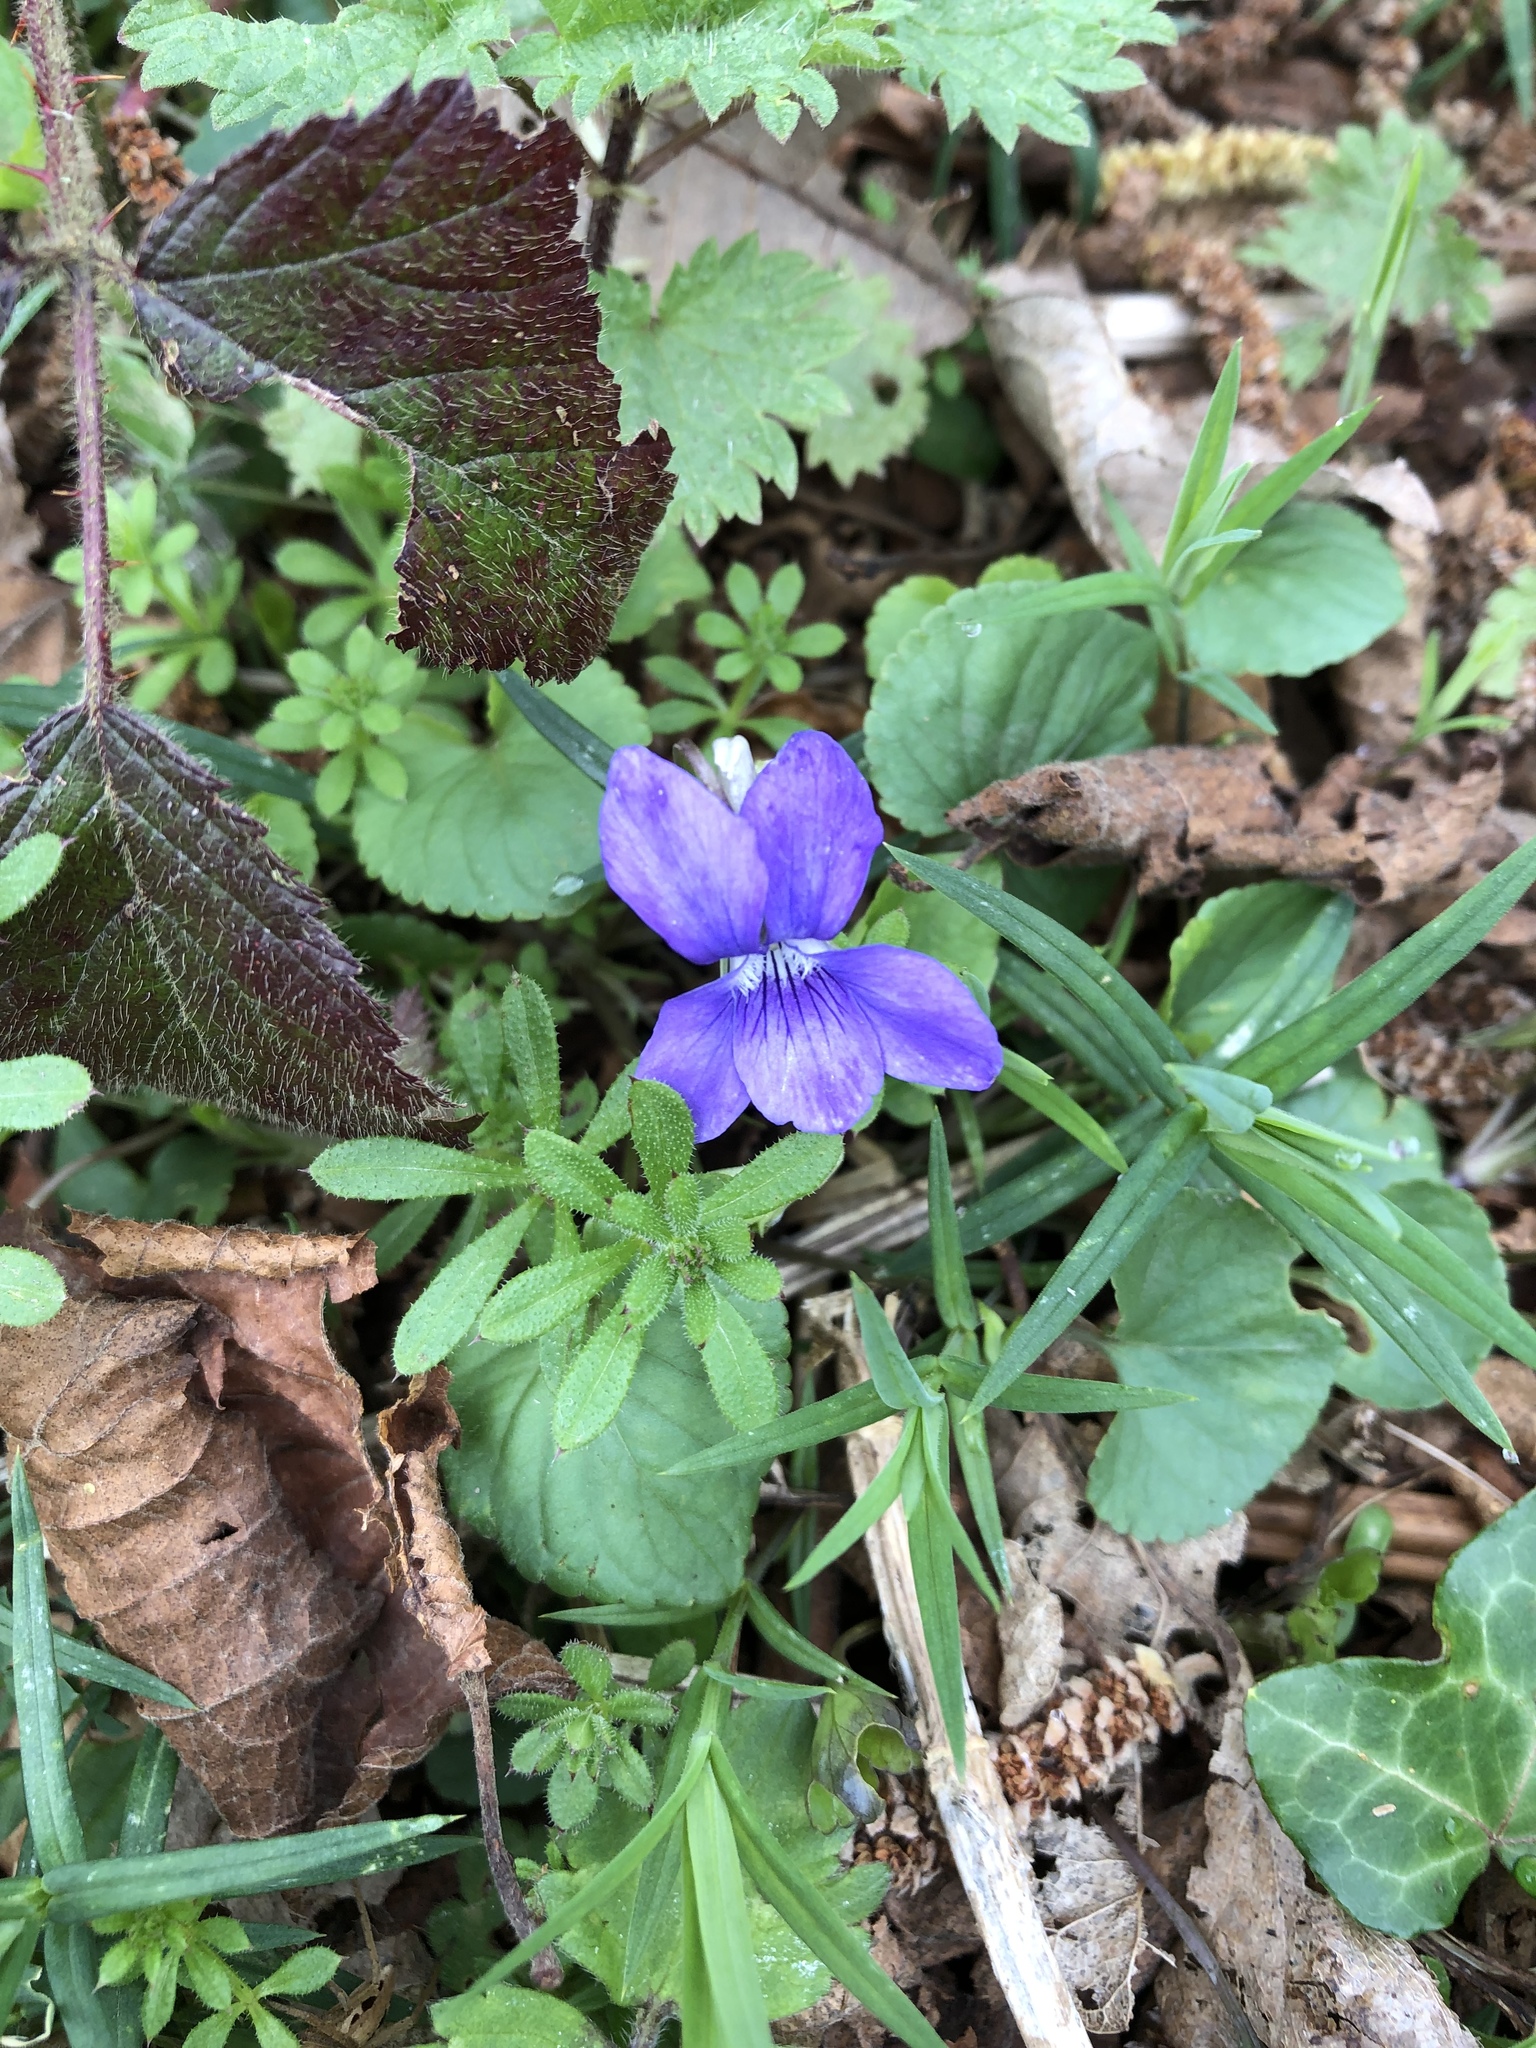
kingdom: Plantae
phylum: Tracheophyta
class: Magnoliopsida
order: Malpighiales
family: Violaceae
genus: Viola
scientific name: Viola riviniana
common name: Common dog-violet
